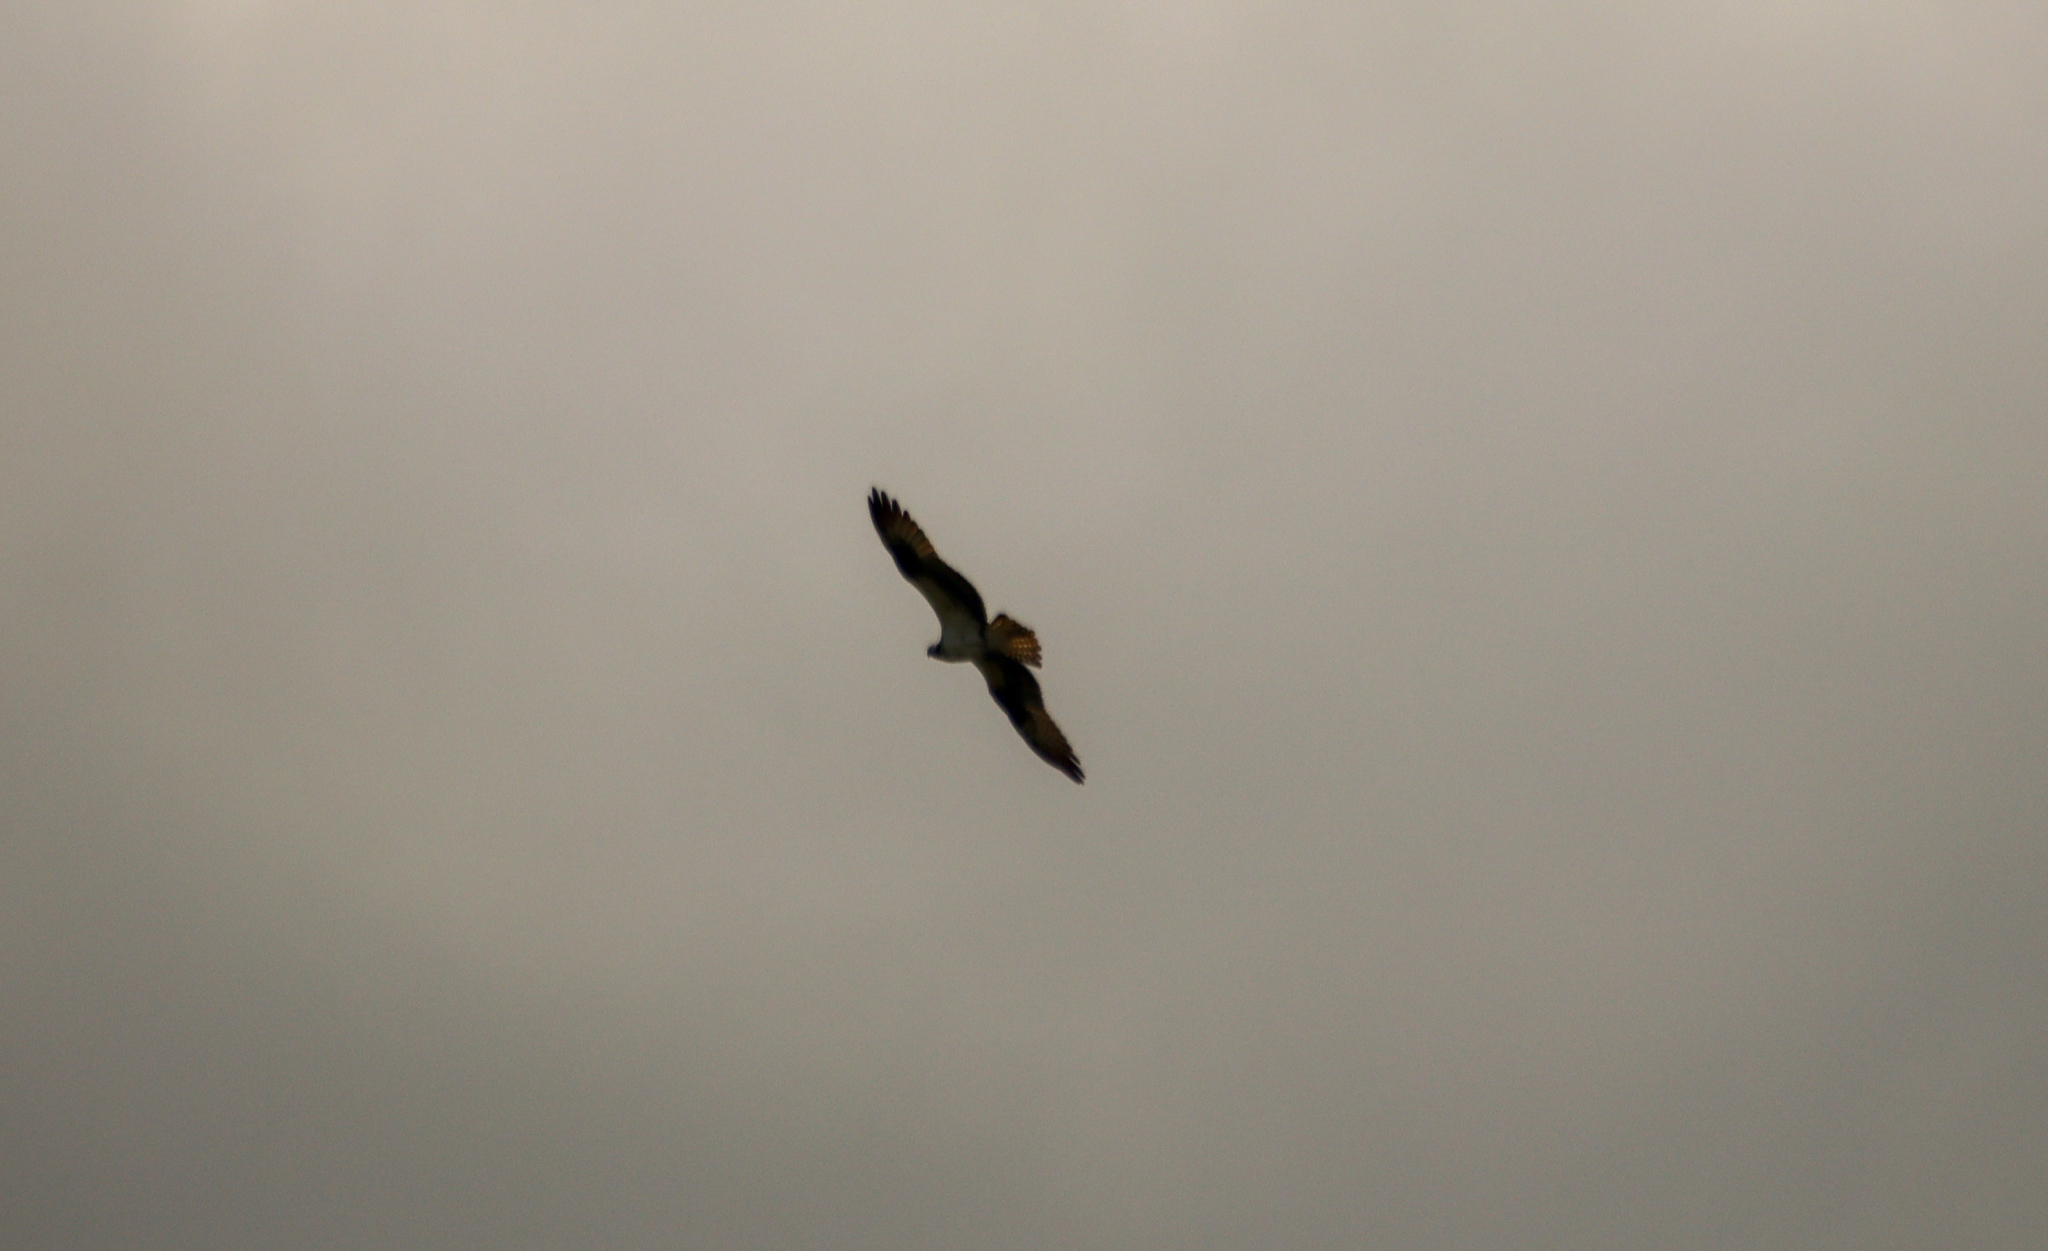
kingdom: Animalia
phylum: Chordata
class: Aves
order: Accipitriformes
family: Pandionidae
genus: Pandion
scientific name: Pandion haliaetus
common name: Osprey
